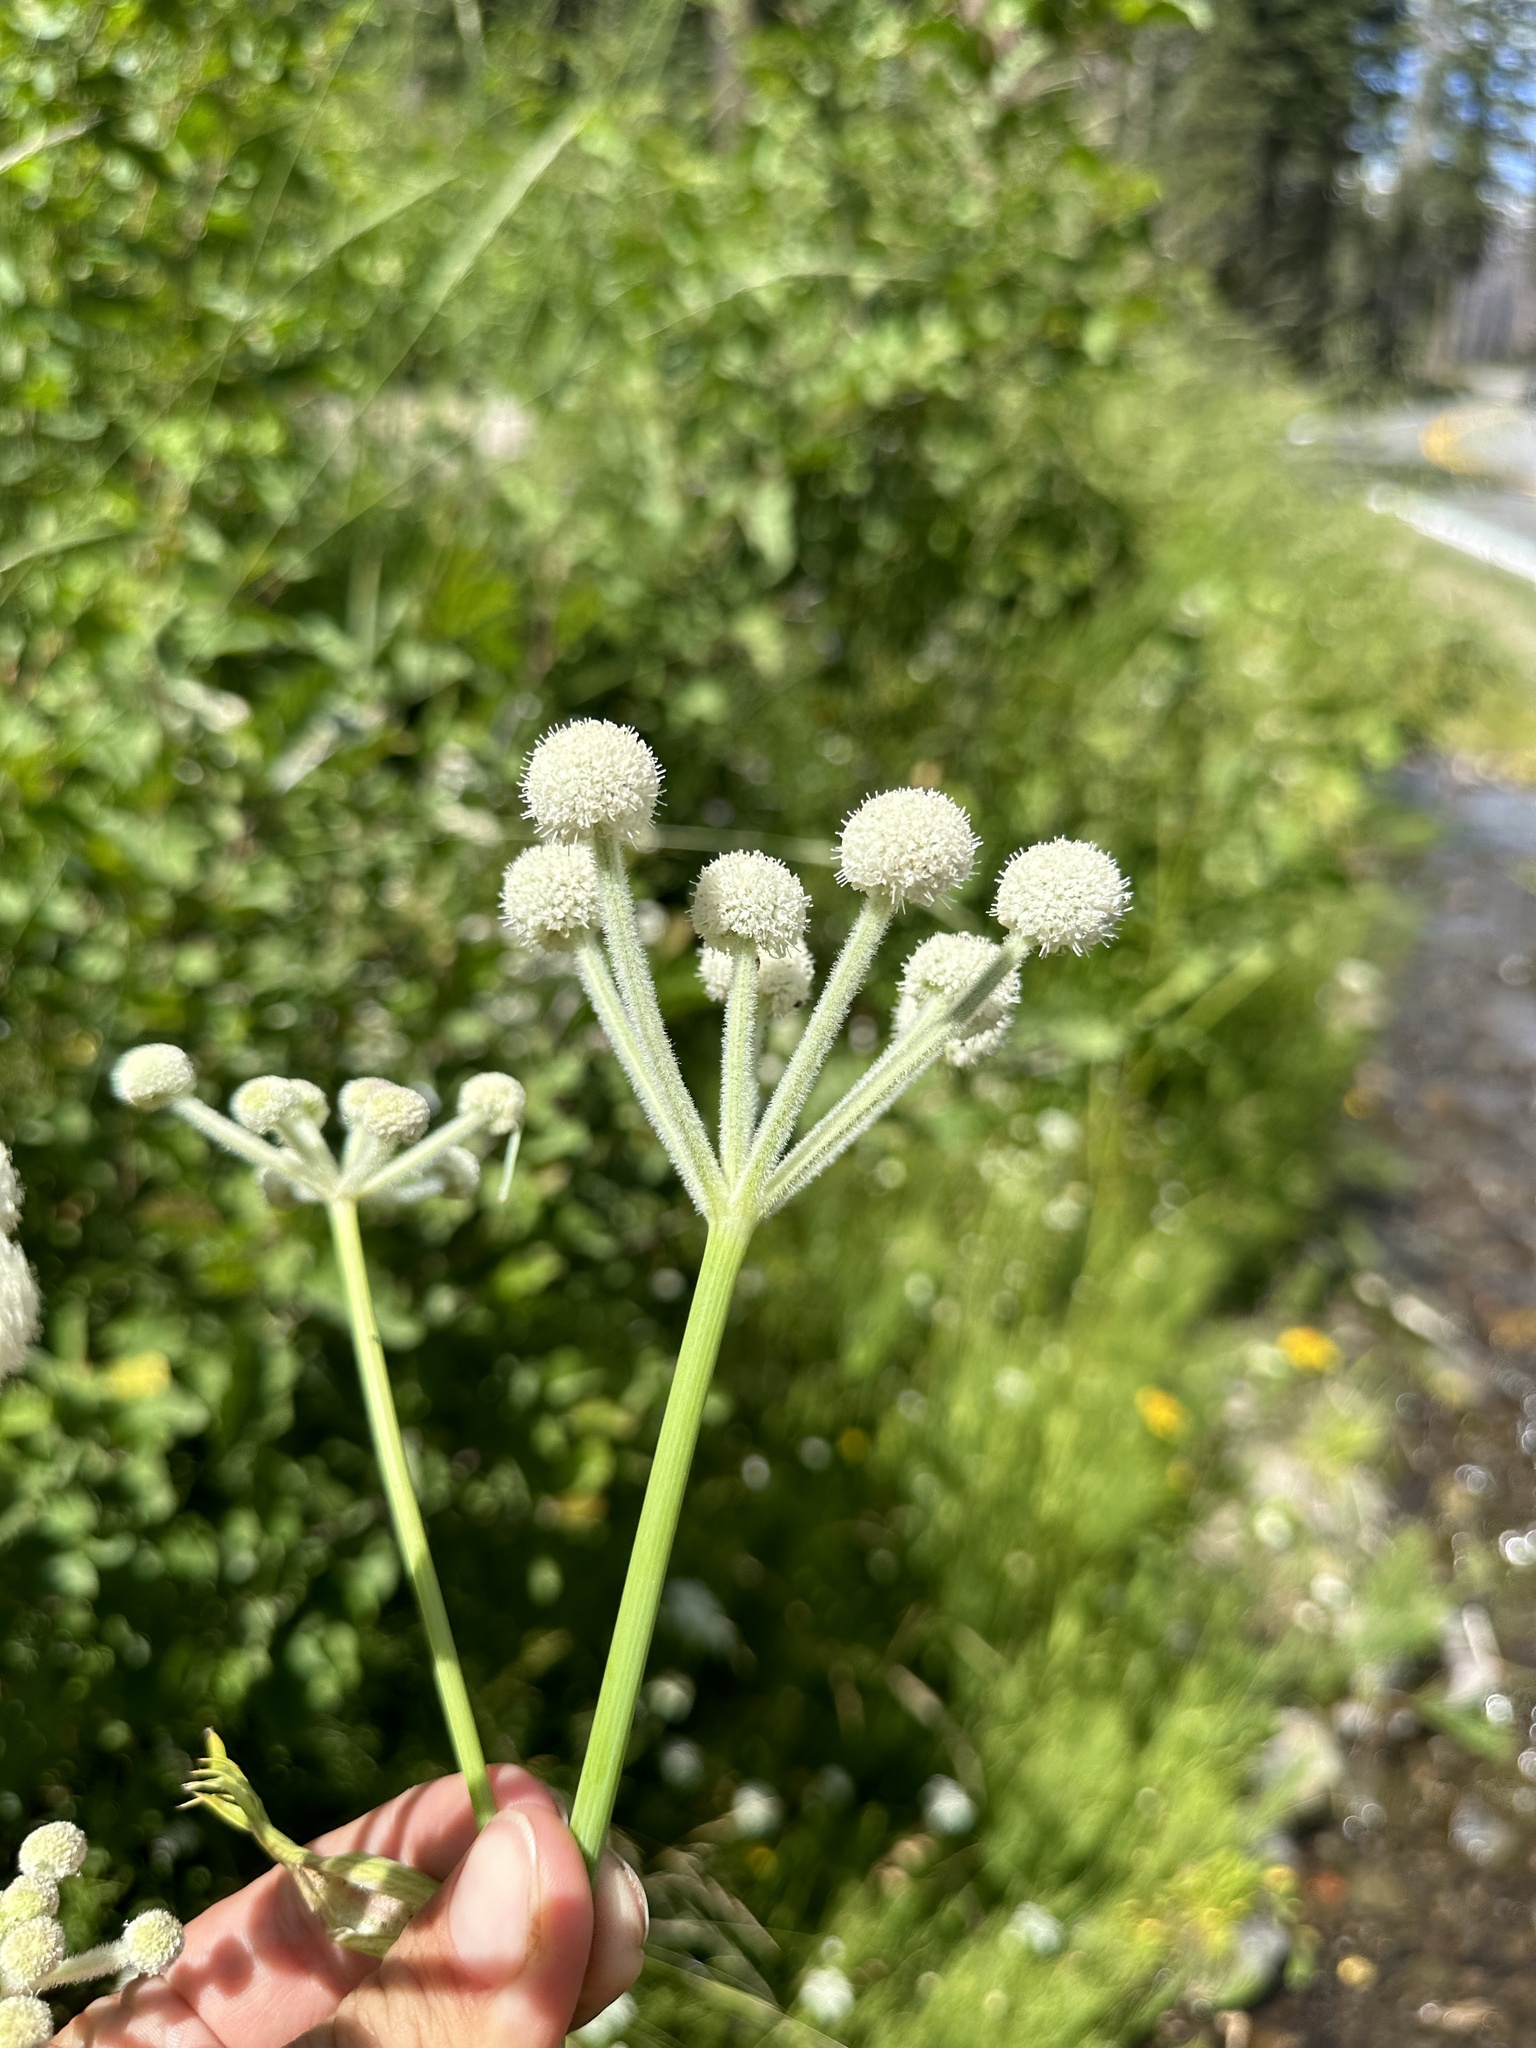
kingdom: Plantae
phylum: Tracheophyta
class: Magnoliopsida
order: Apiales
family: Apiaceae
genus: Angelica
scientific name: Angelica capitellata
